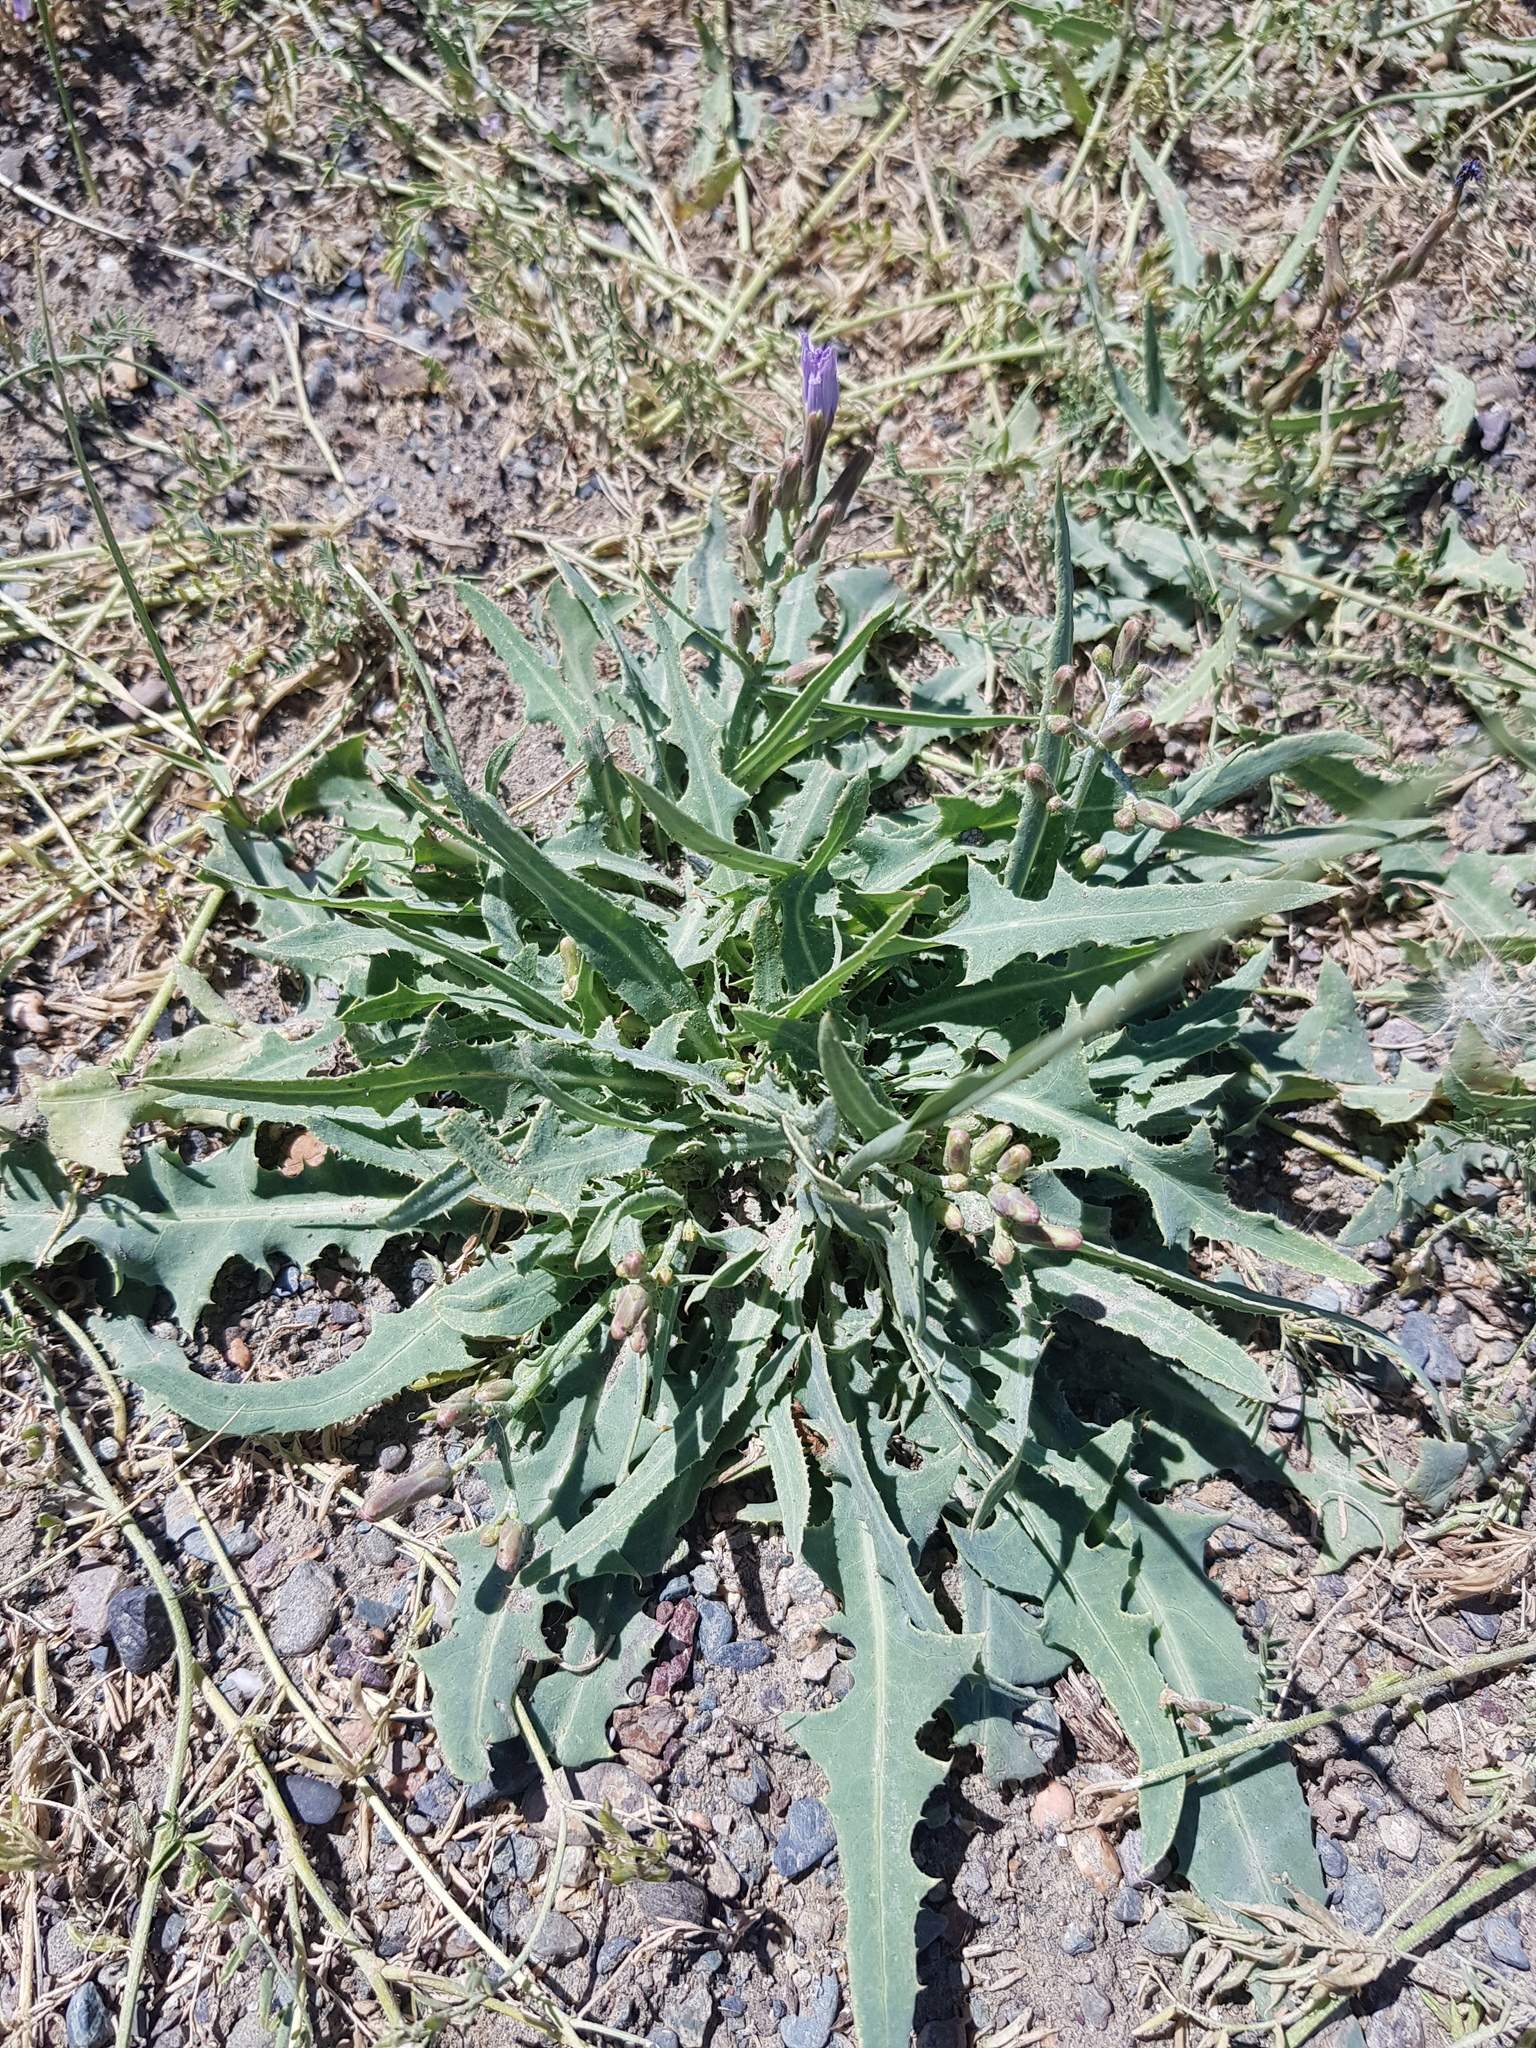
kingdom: Plantae
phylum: Tracheophyta
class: Magnoliopsida
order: Asterales
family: Asteraceae
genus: Lactuca
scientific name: Lactuca tatarica
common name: Blue lettuce
